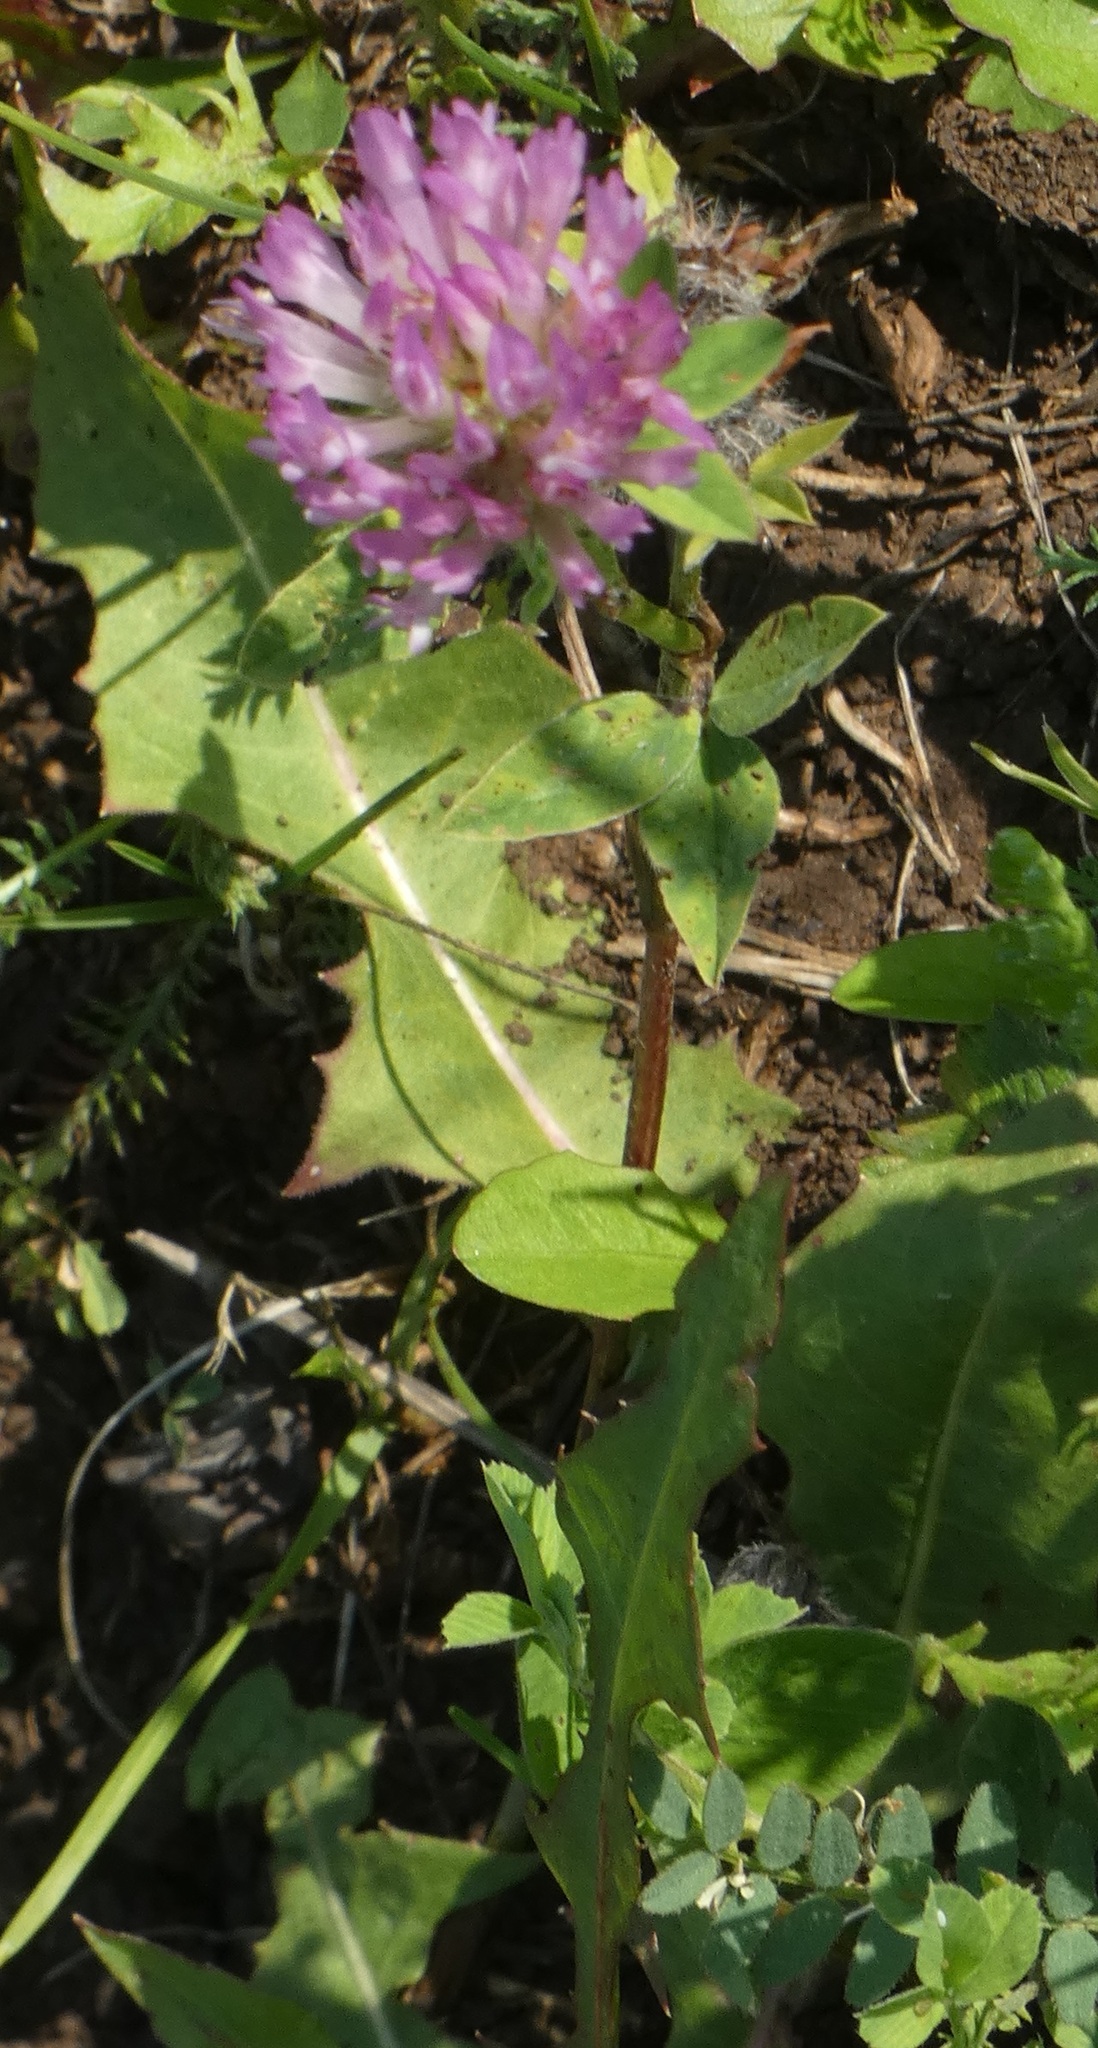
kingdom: Plantae
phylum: Tracheophyta
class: Magnoliopsida
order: Fabales
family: Fabaceae
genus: Trifolium
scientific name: Trifolium pratense
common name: Red clover
